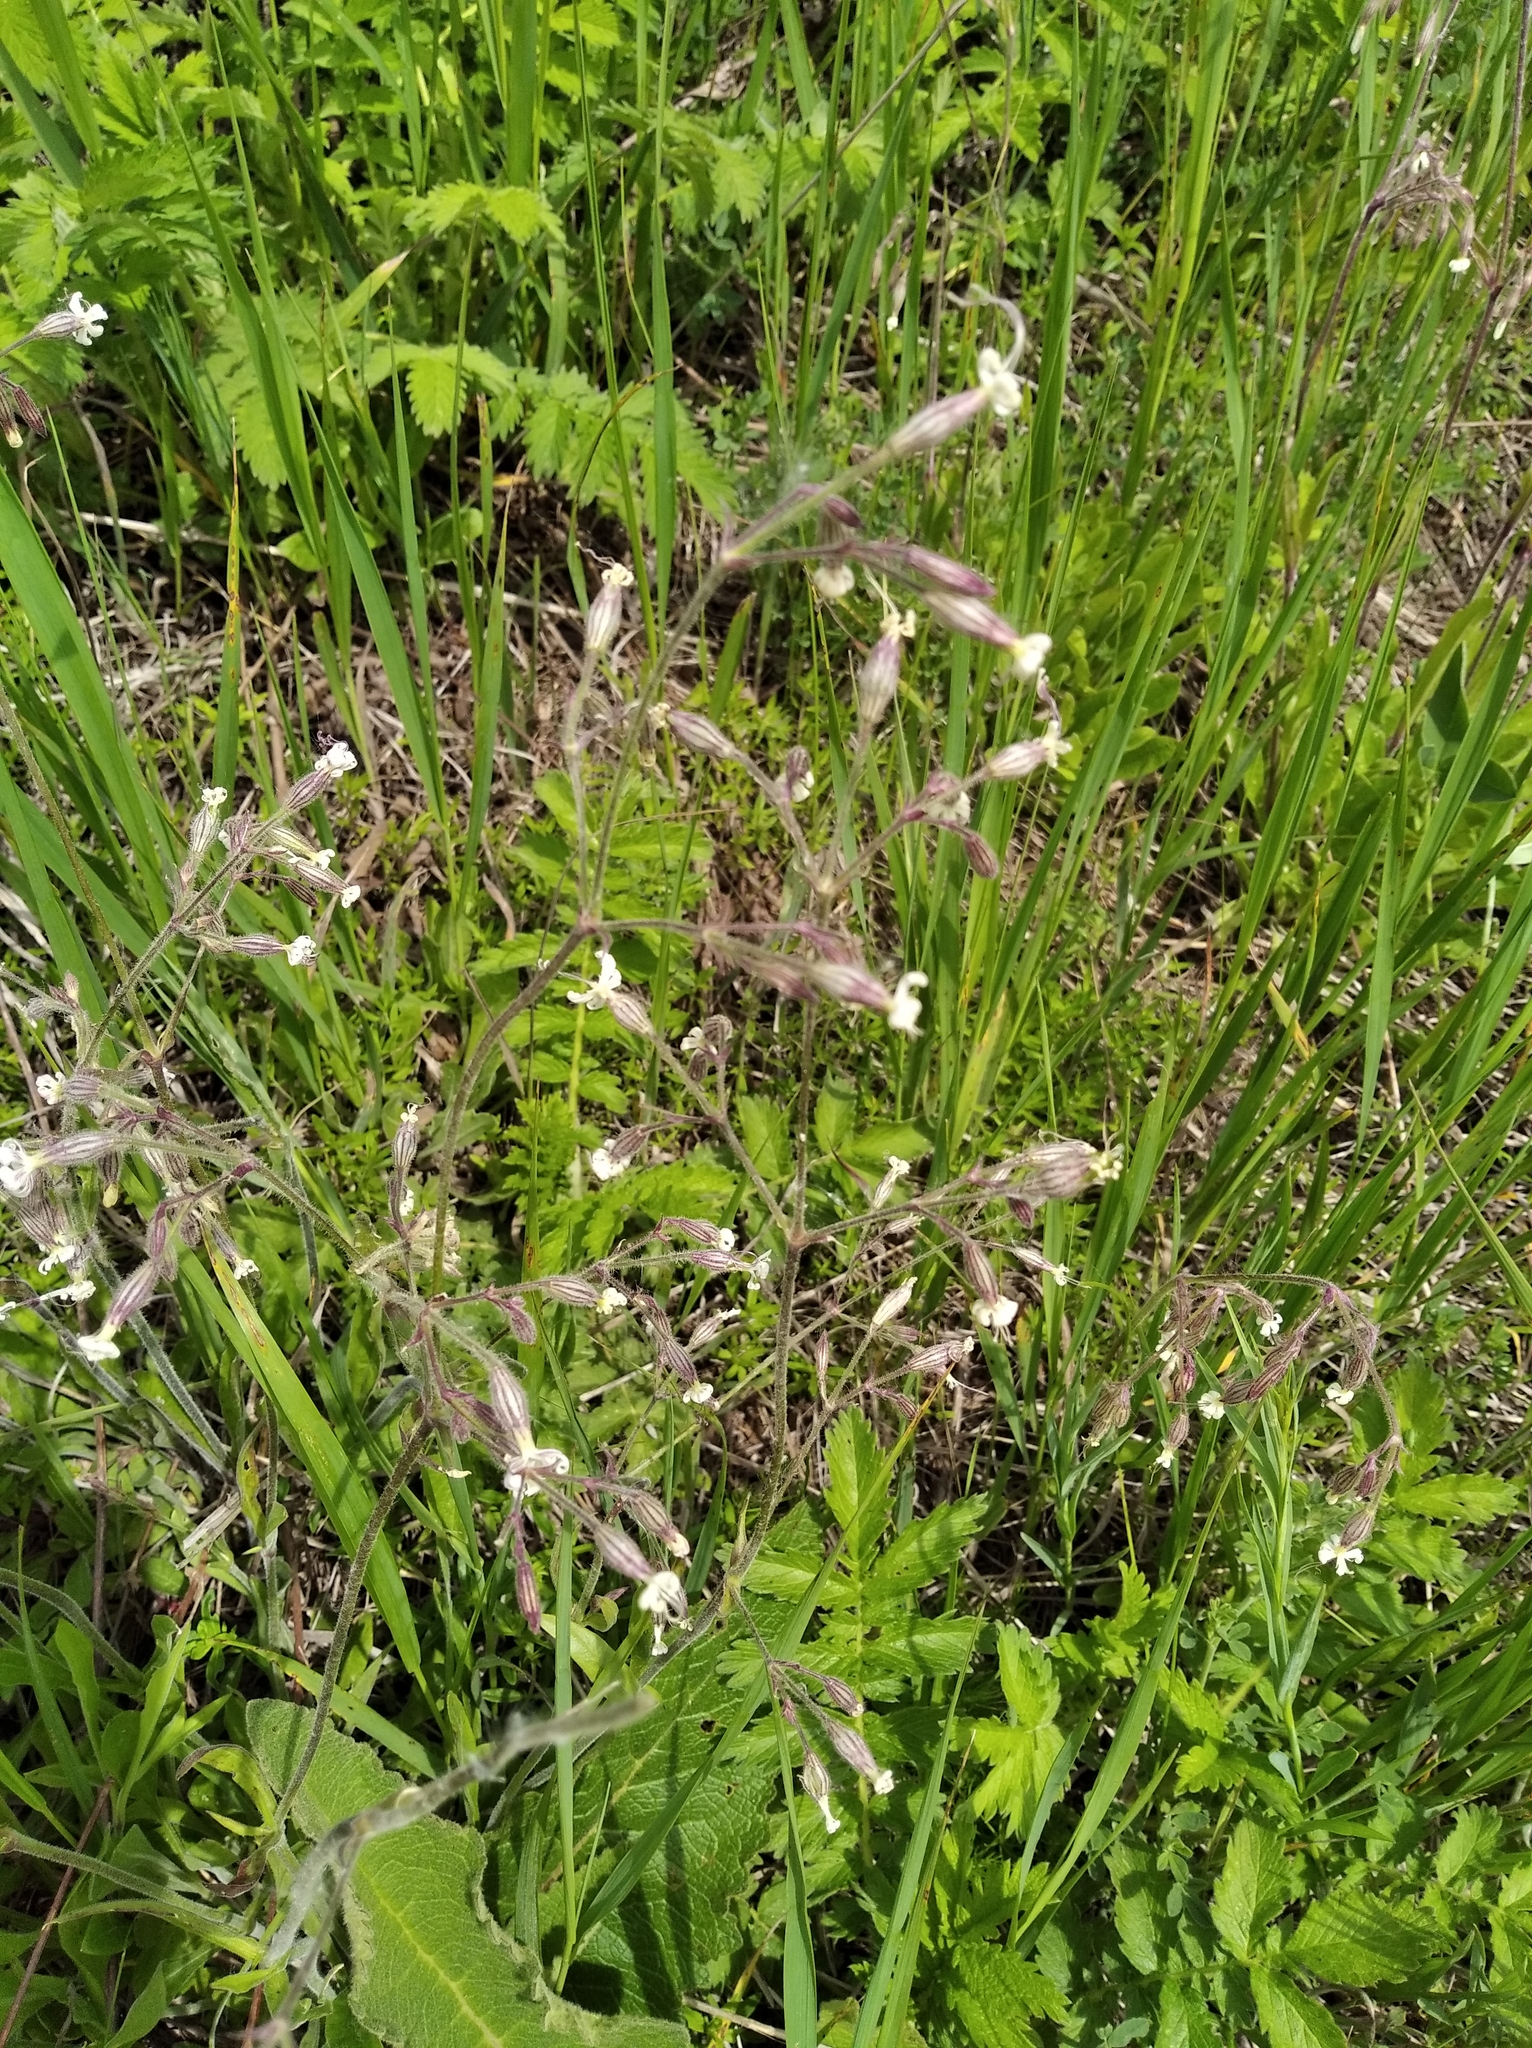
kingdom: Plantae
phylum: Tracheophyta
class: Magnoliopsida
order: Caryophyllales
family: Caryophyllaceae
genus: Silene
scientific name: Silene nutans
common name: Nottingham catchfly
